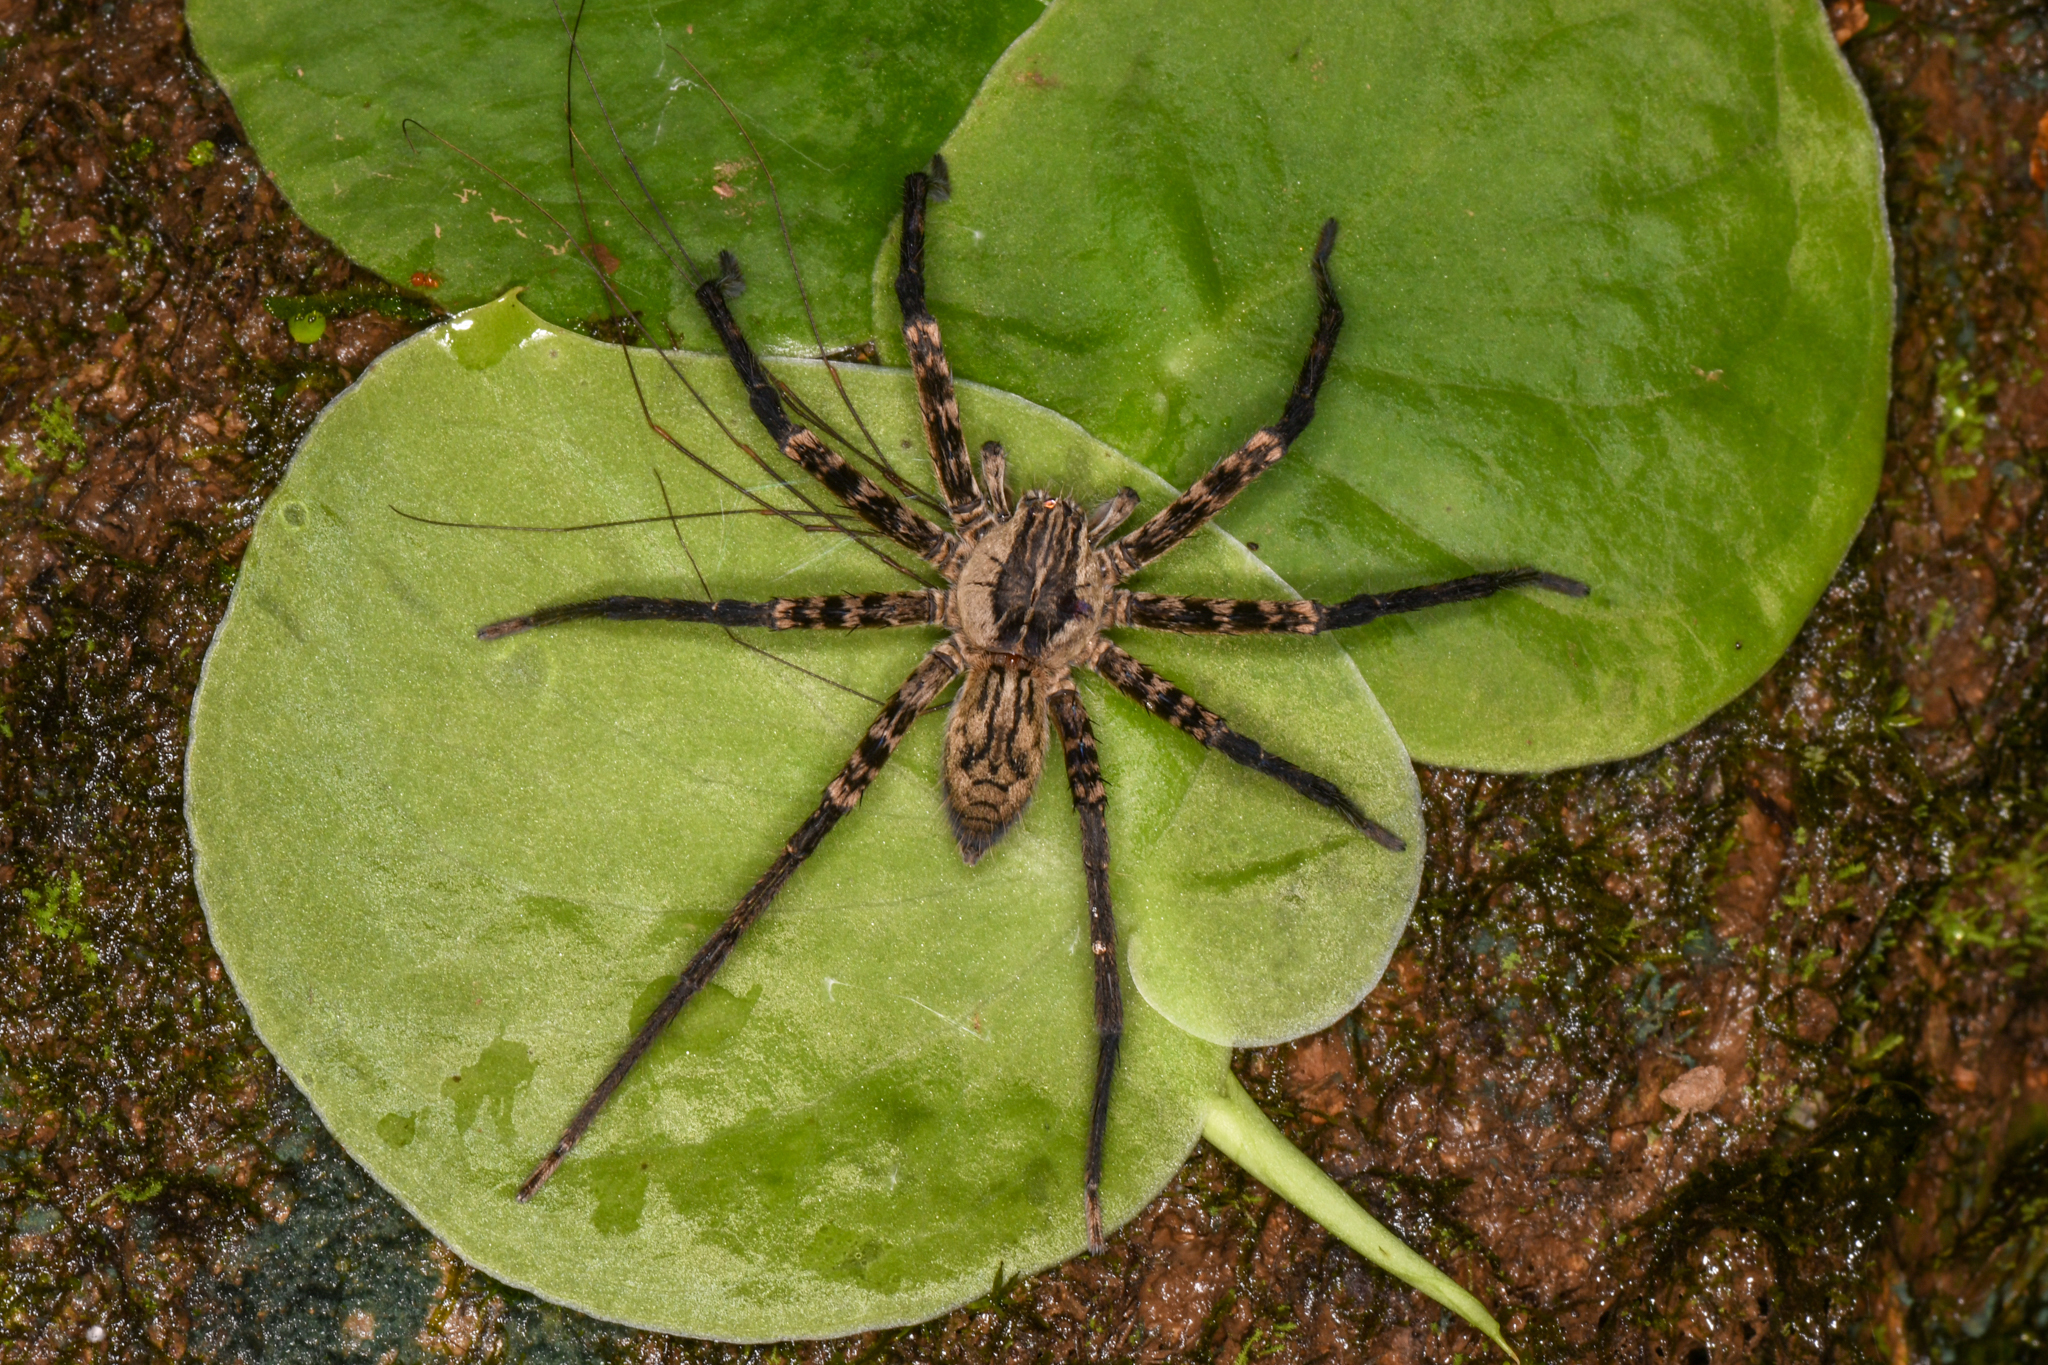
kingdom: Animalia
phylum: Arthropoda
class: Arachnida
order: Araneae
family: Trechaleidae
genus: Cupiennius
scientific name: Cupiennius coccineus
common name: Wandering spiders
